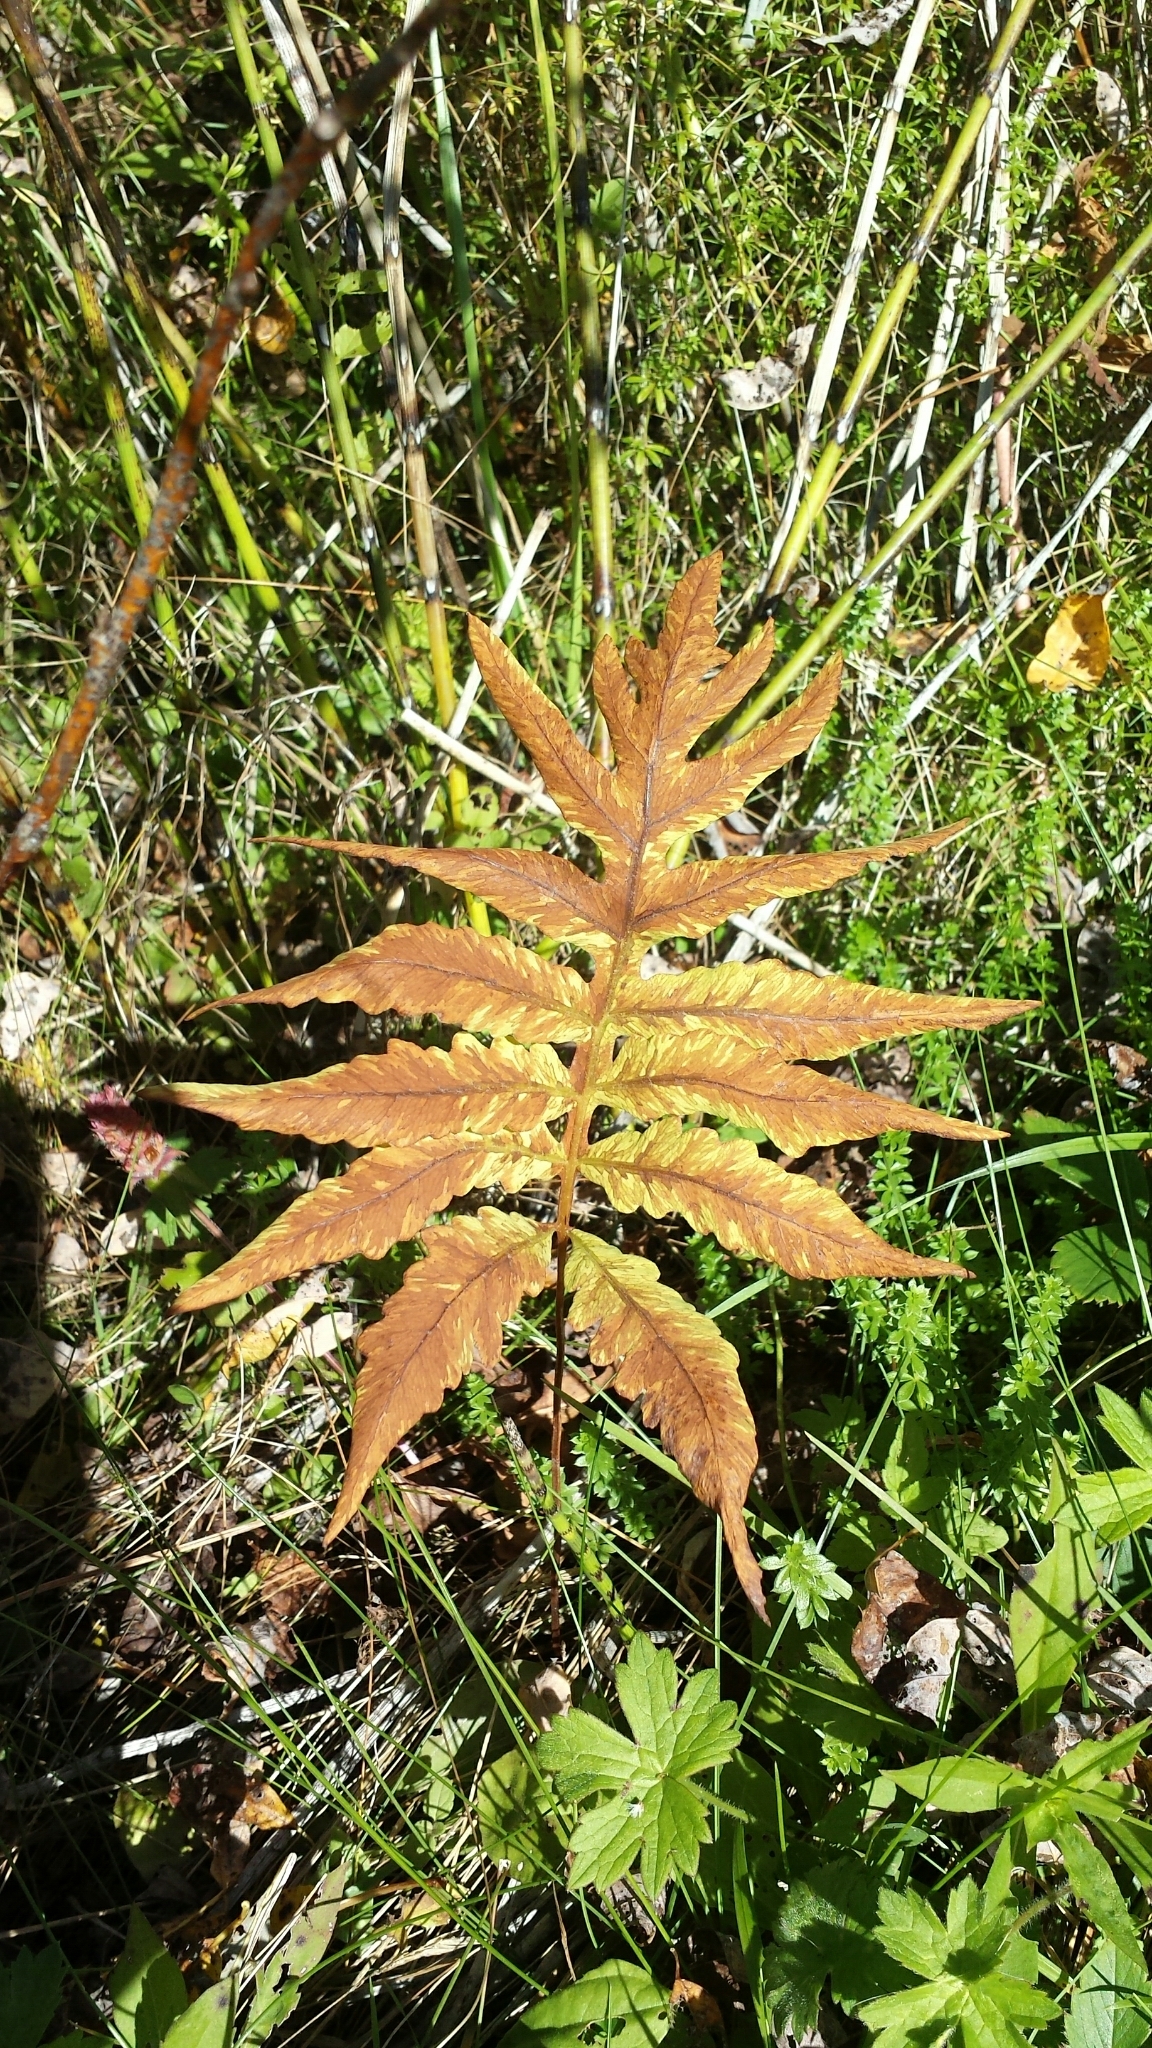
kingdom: Plantae
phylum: Tracheophyta
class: Polypodiopsida
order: Polypodiales
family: Onocleaceae
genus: Onoclea
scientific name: Onoclea sensibilis
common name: Sensitive fern
